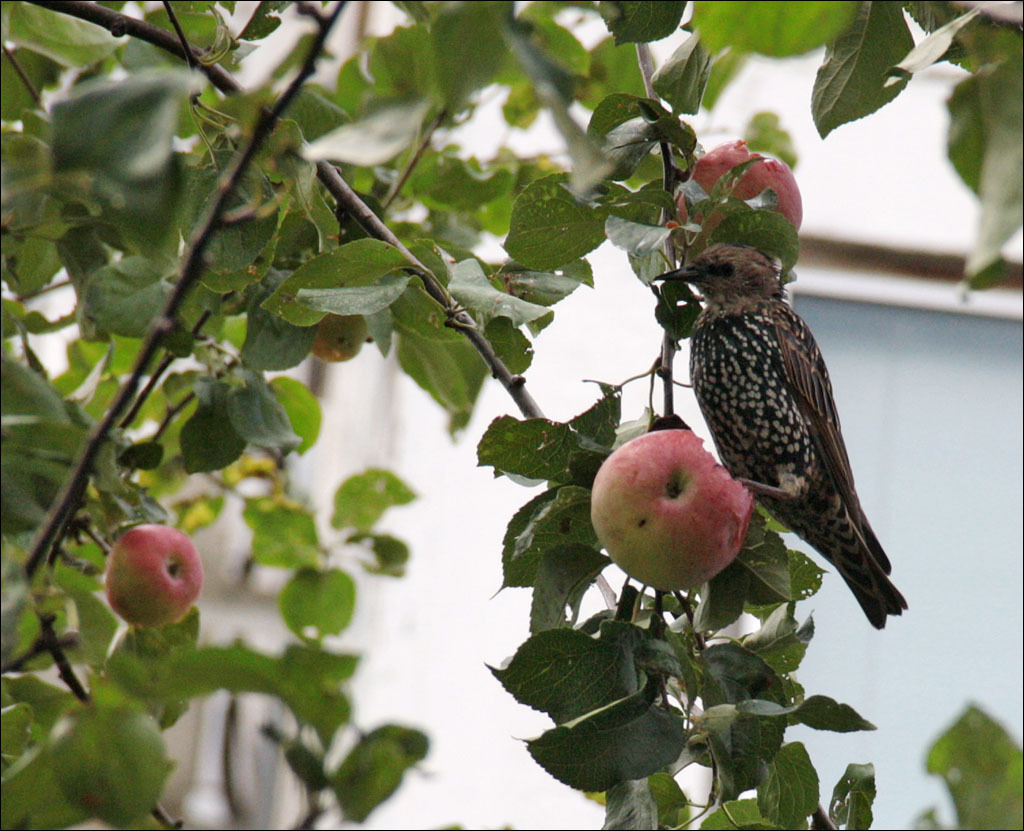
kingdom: Animalia
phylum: Chordata
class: Aves
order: Passeriformes
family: Sturnidae
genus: Sturnus
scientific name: Sturnus vulgaris
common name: Common starling
